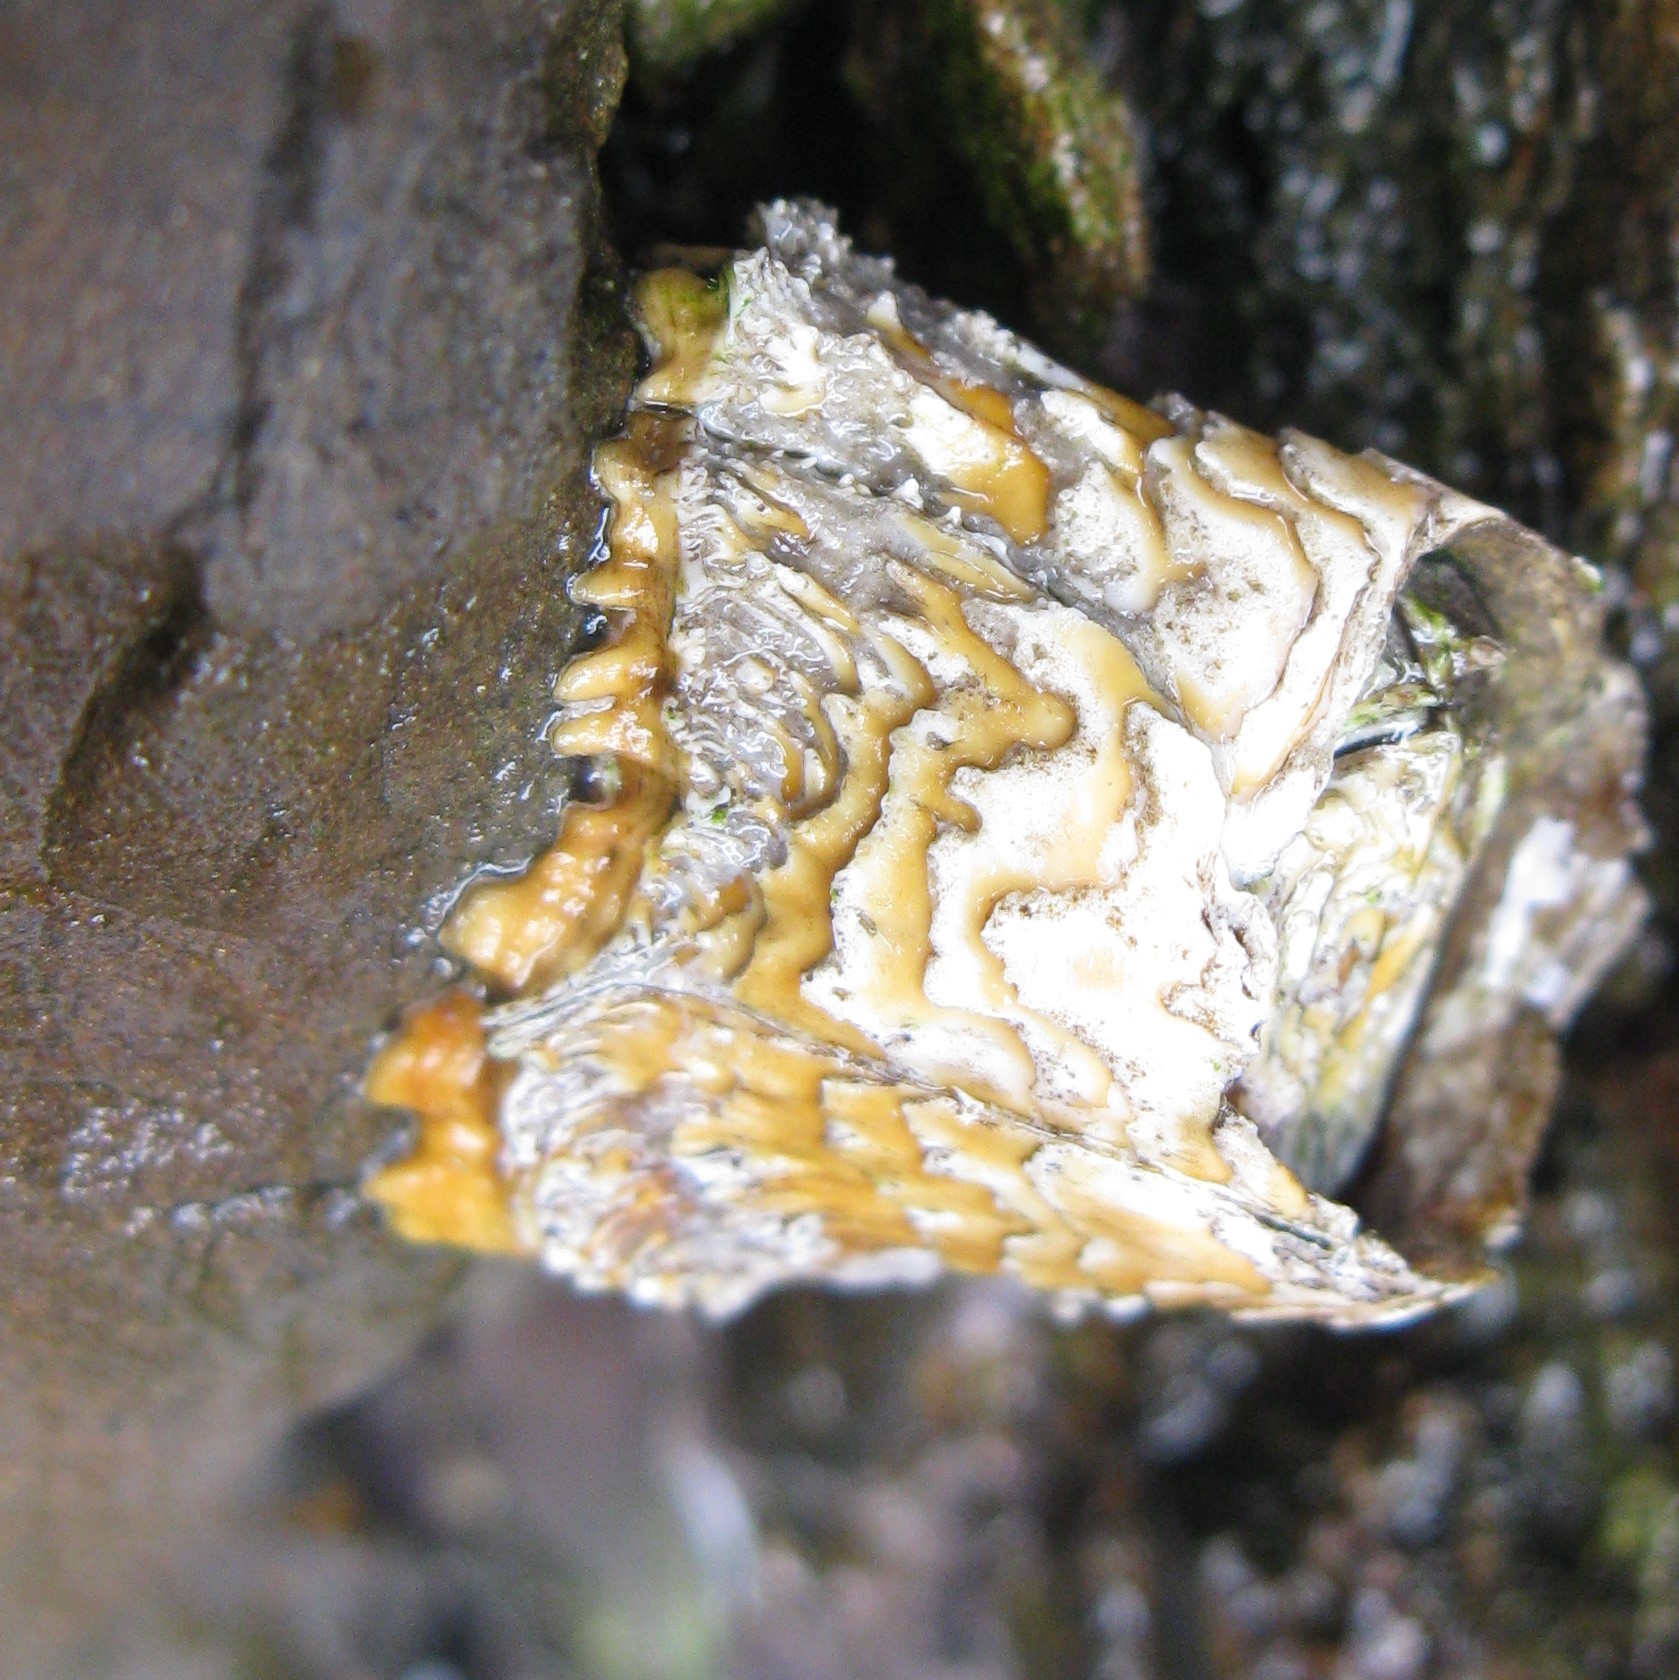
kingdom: Animalia
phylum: Arthropoda
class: Maxillopoda
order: Sessilia
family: Tetraclitidae
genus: Epopella
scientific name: Epopella plicata
